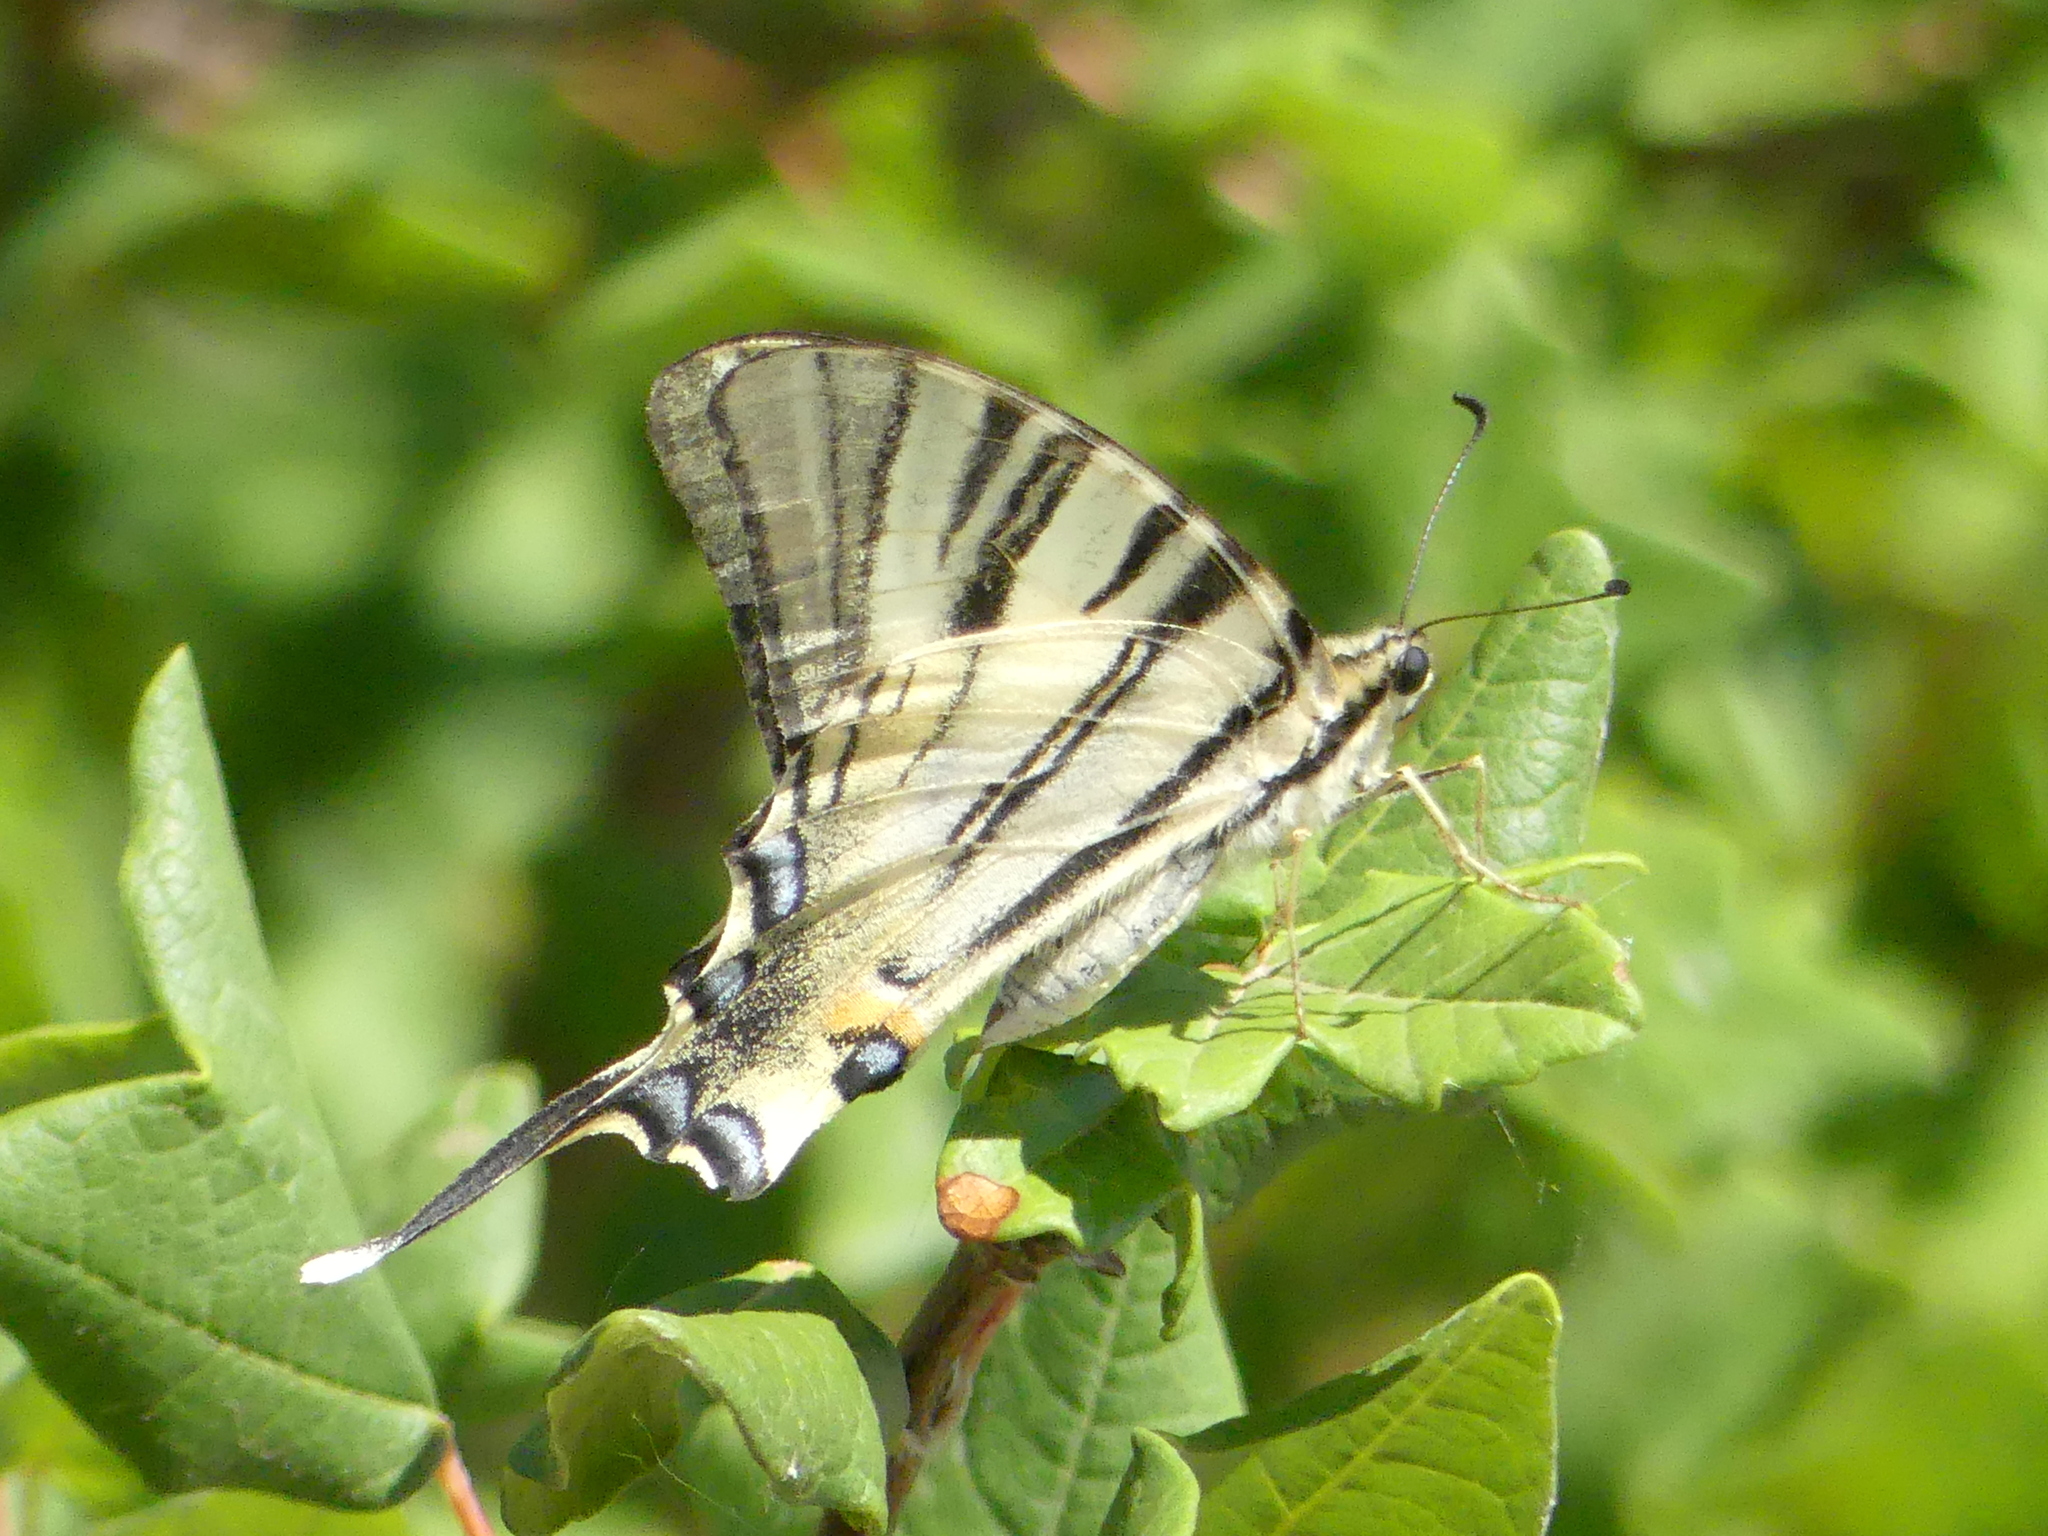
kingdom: Animalia
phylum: Arthropoda
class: Insecta
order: Lepidoptera
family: Papilionidae
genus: Iphiclides
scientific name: Iphiclides podalirius
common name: Scarce swallowtail
